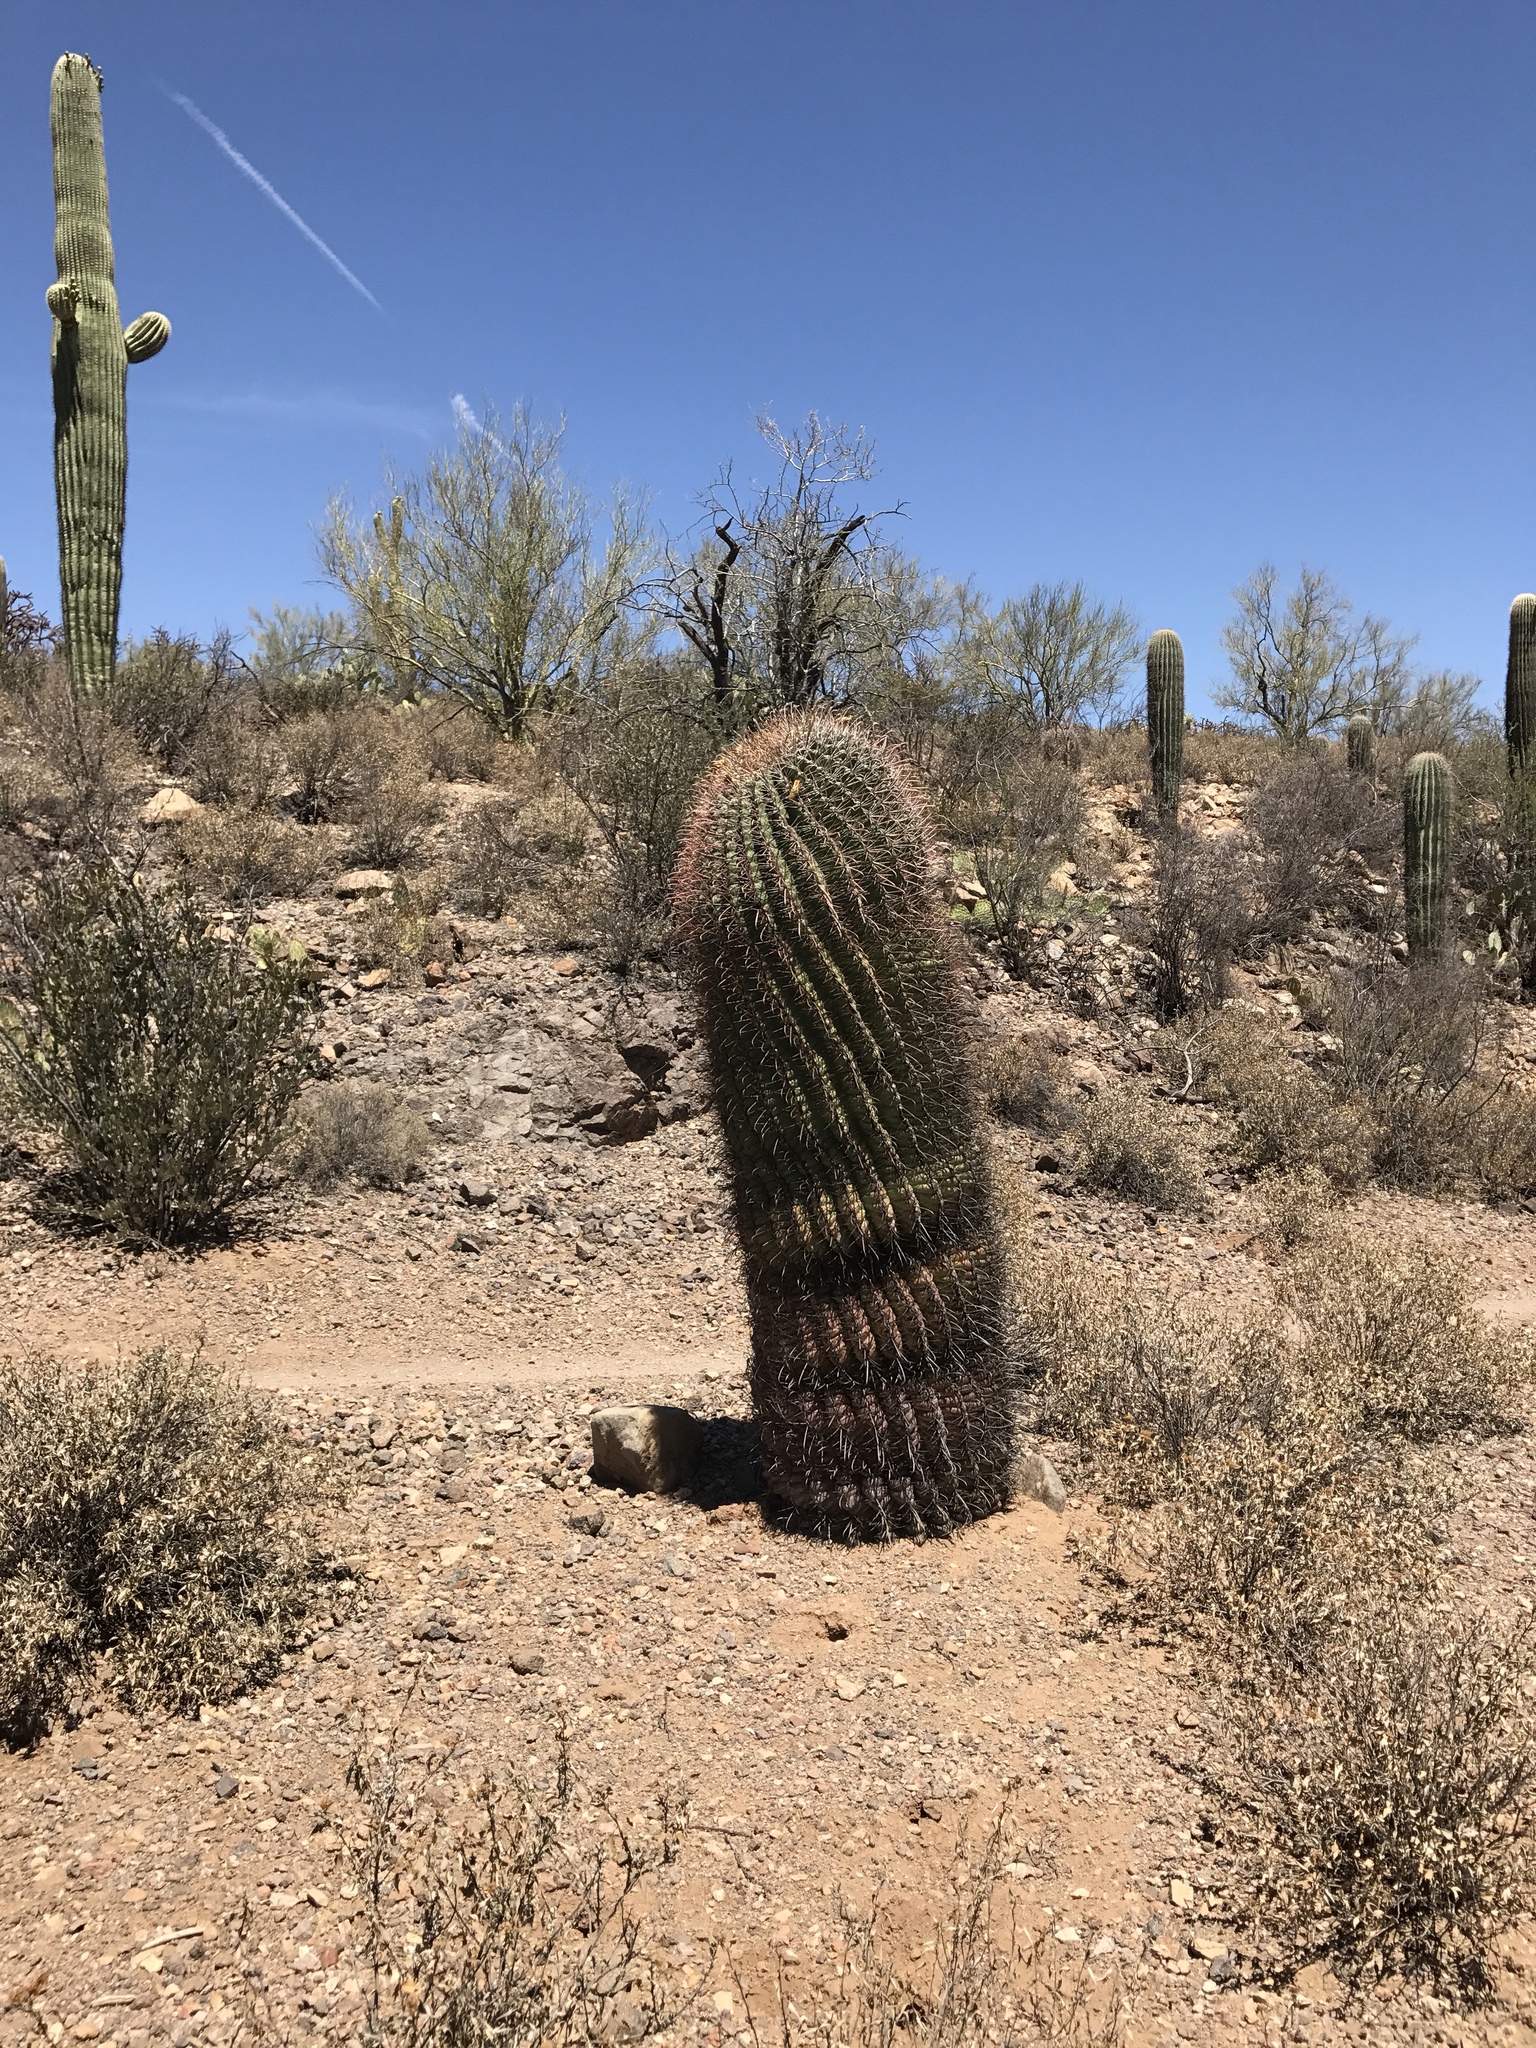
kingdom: Plantae
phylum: Tracheophyta
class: Magnoliopsida
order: Caryophyllales
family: Cactaceae
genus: Ferocactus
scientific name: Ferocactus wislizeni
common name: Candy barrel cactus
